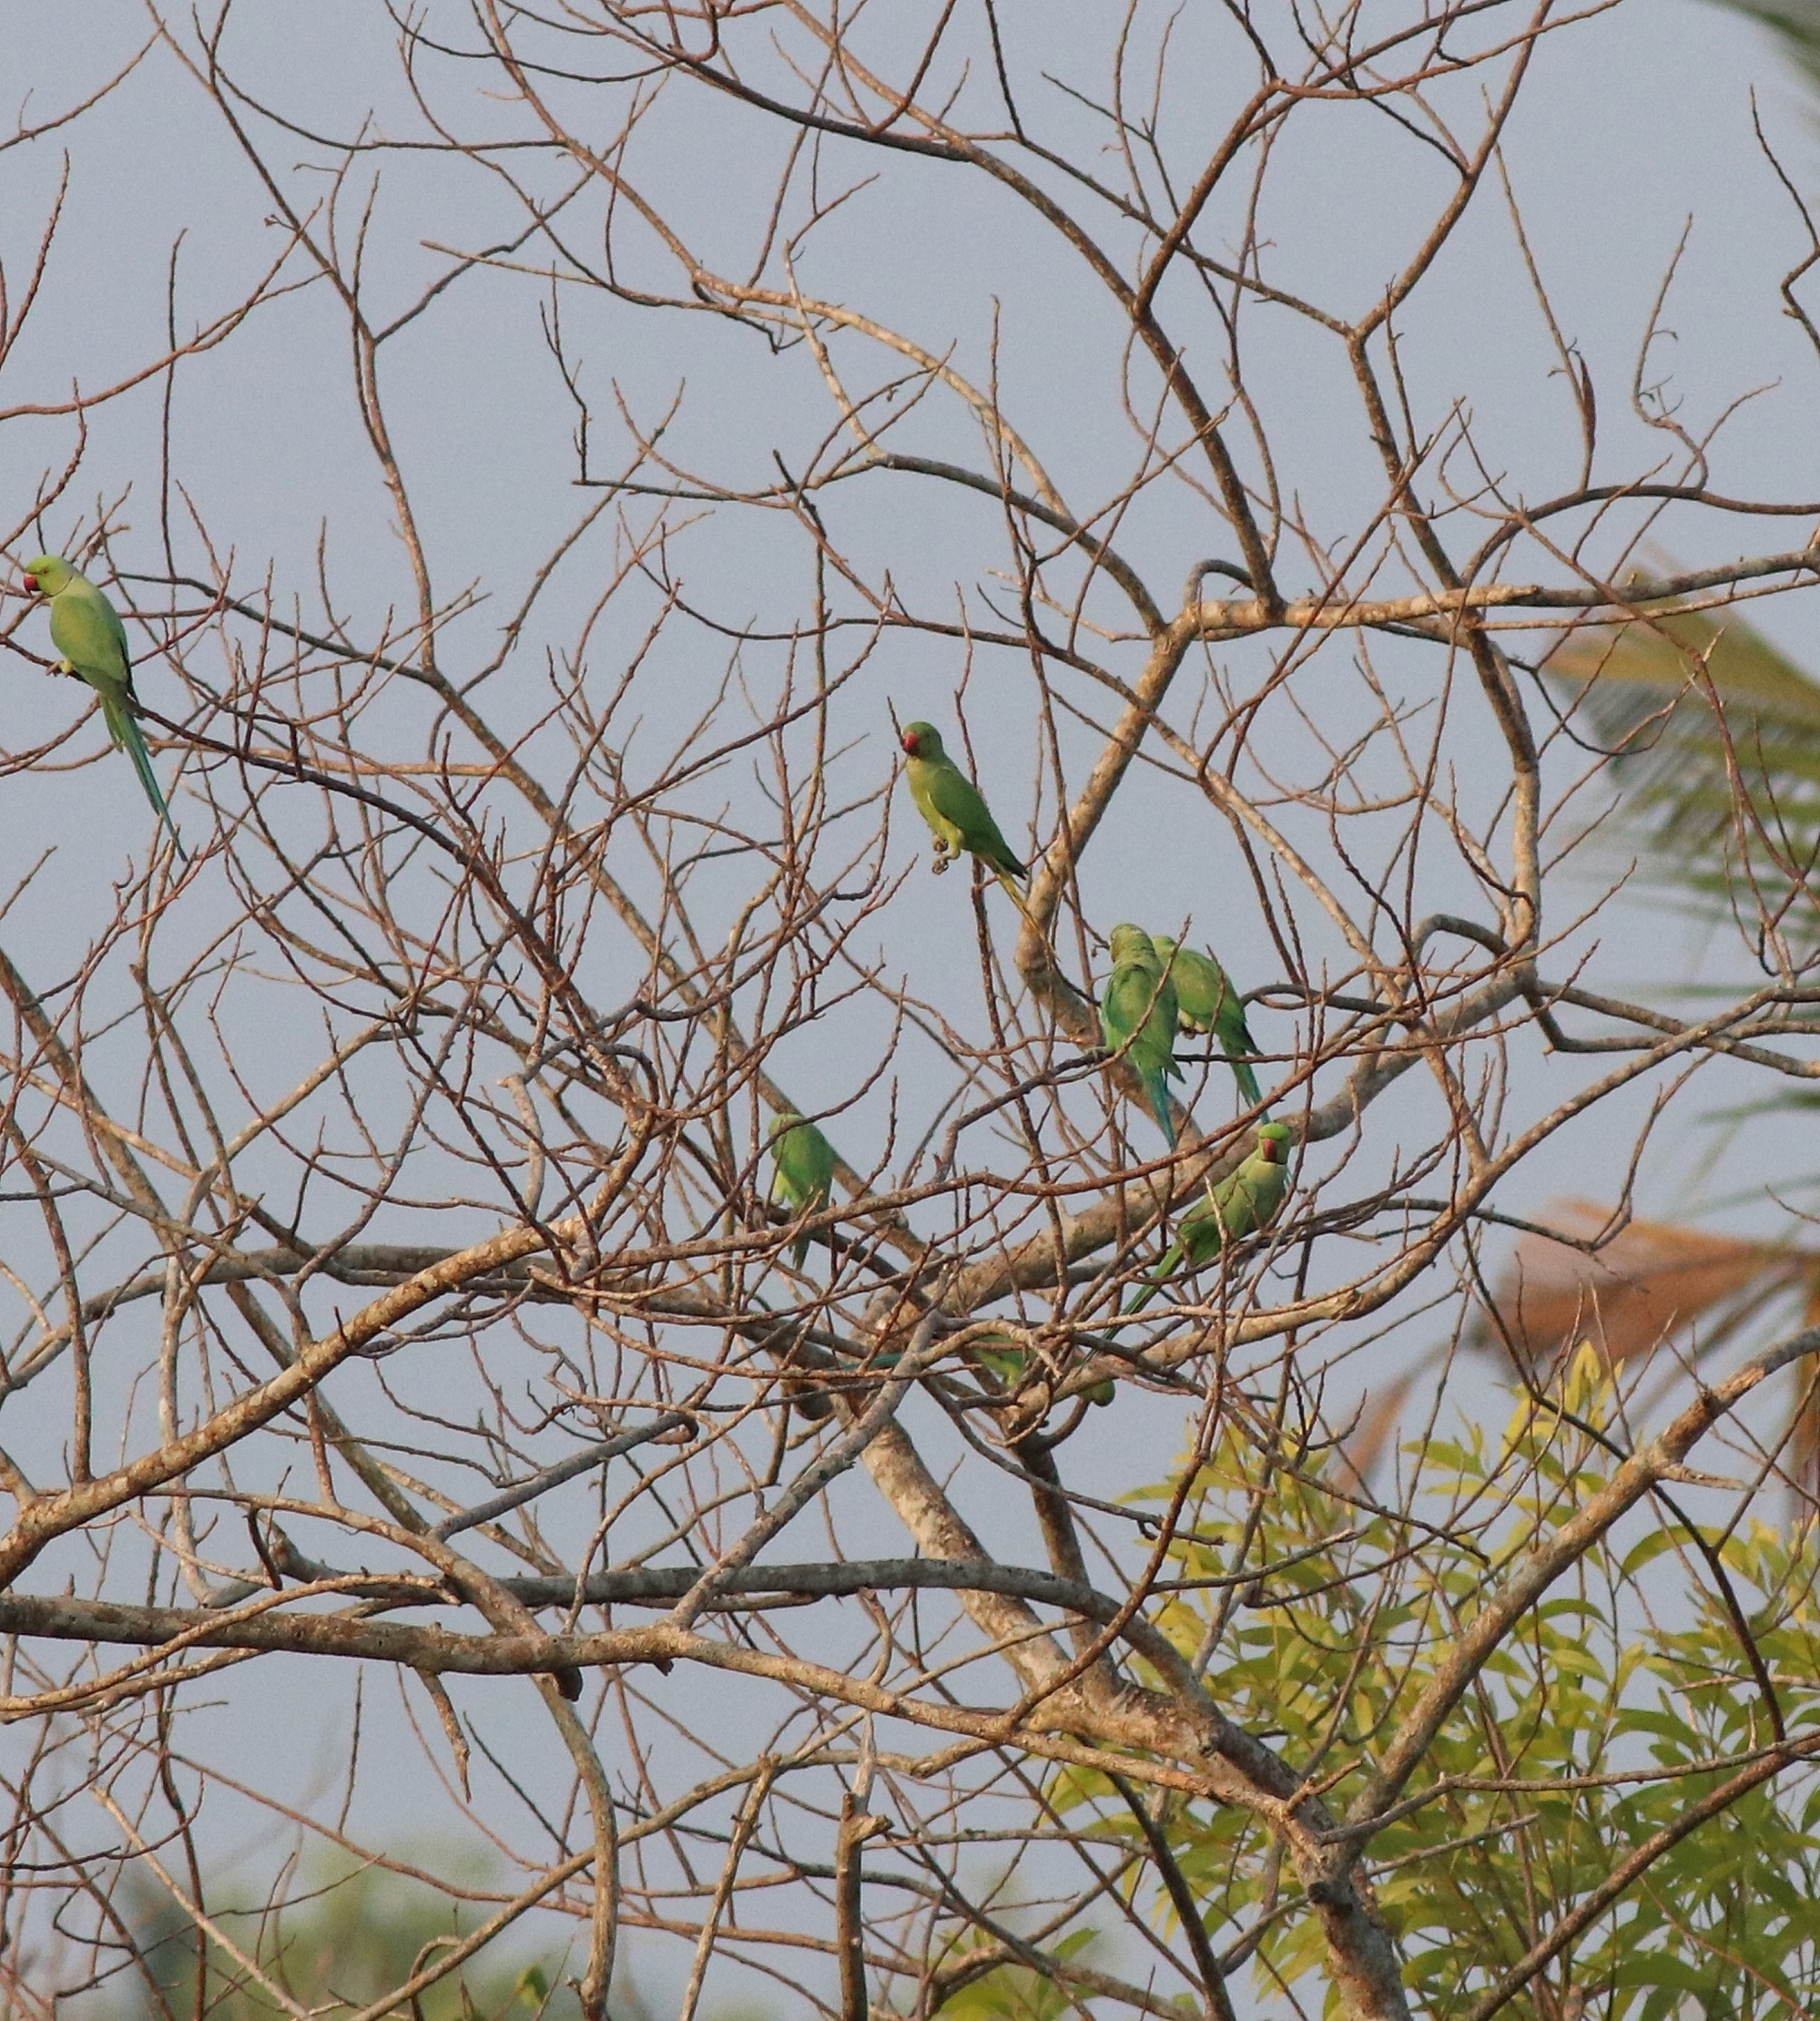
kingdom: Animalia
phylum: Chordata
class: Aves
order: Psittaciformes
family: Psittacidae
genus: Psittacula
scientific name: Psittacula krameri
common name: Rose-ringed parakeet
